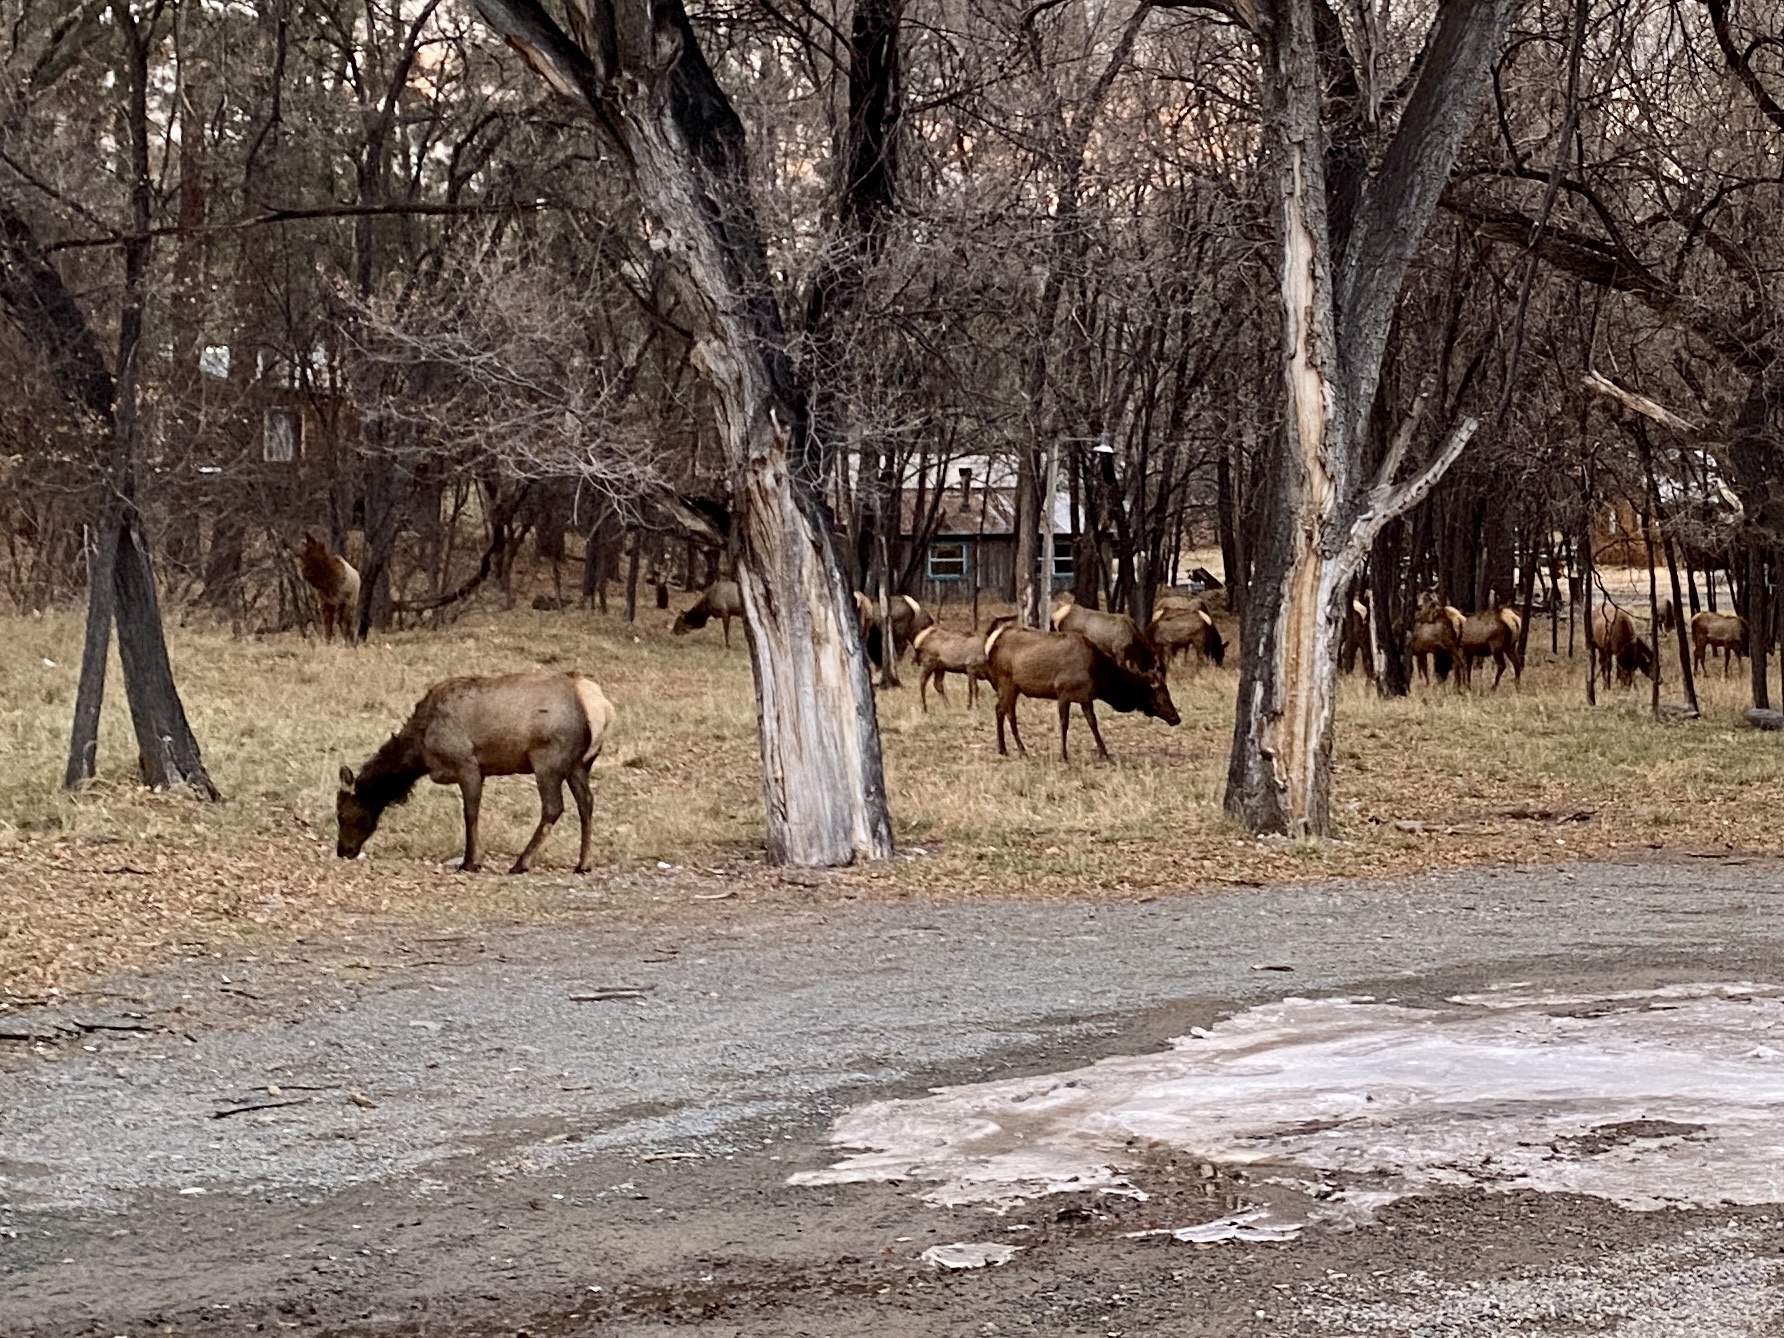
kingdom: Animalia
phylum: Chordata
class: Mammalia
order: Artiodactyla
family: Cervidae
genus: Cervus
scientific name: Cervus elaphus
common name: Red deer
